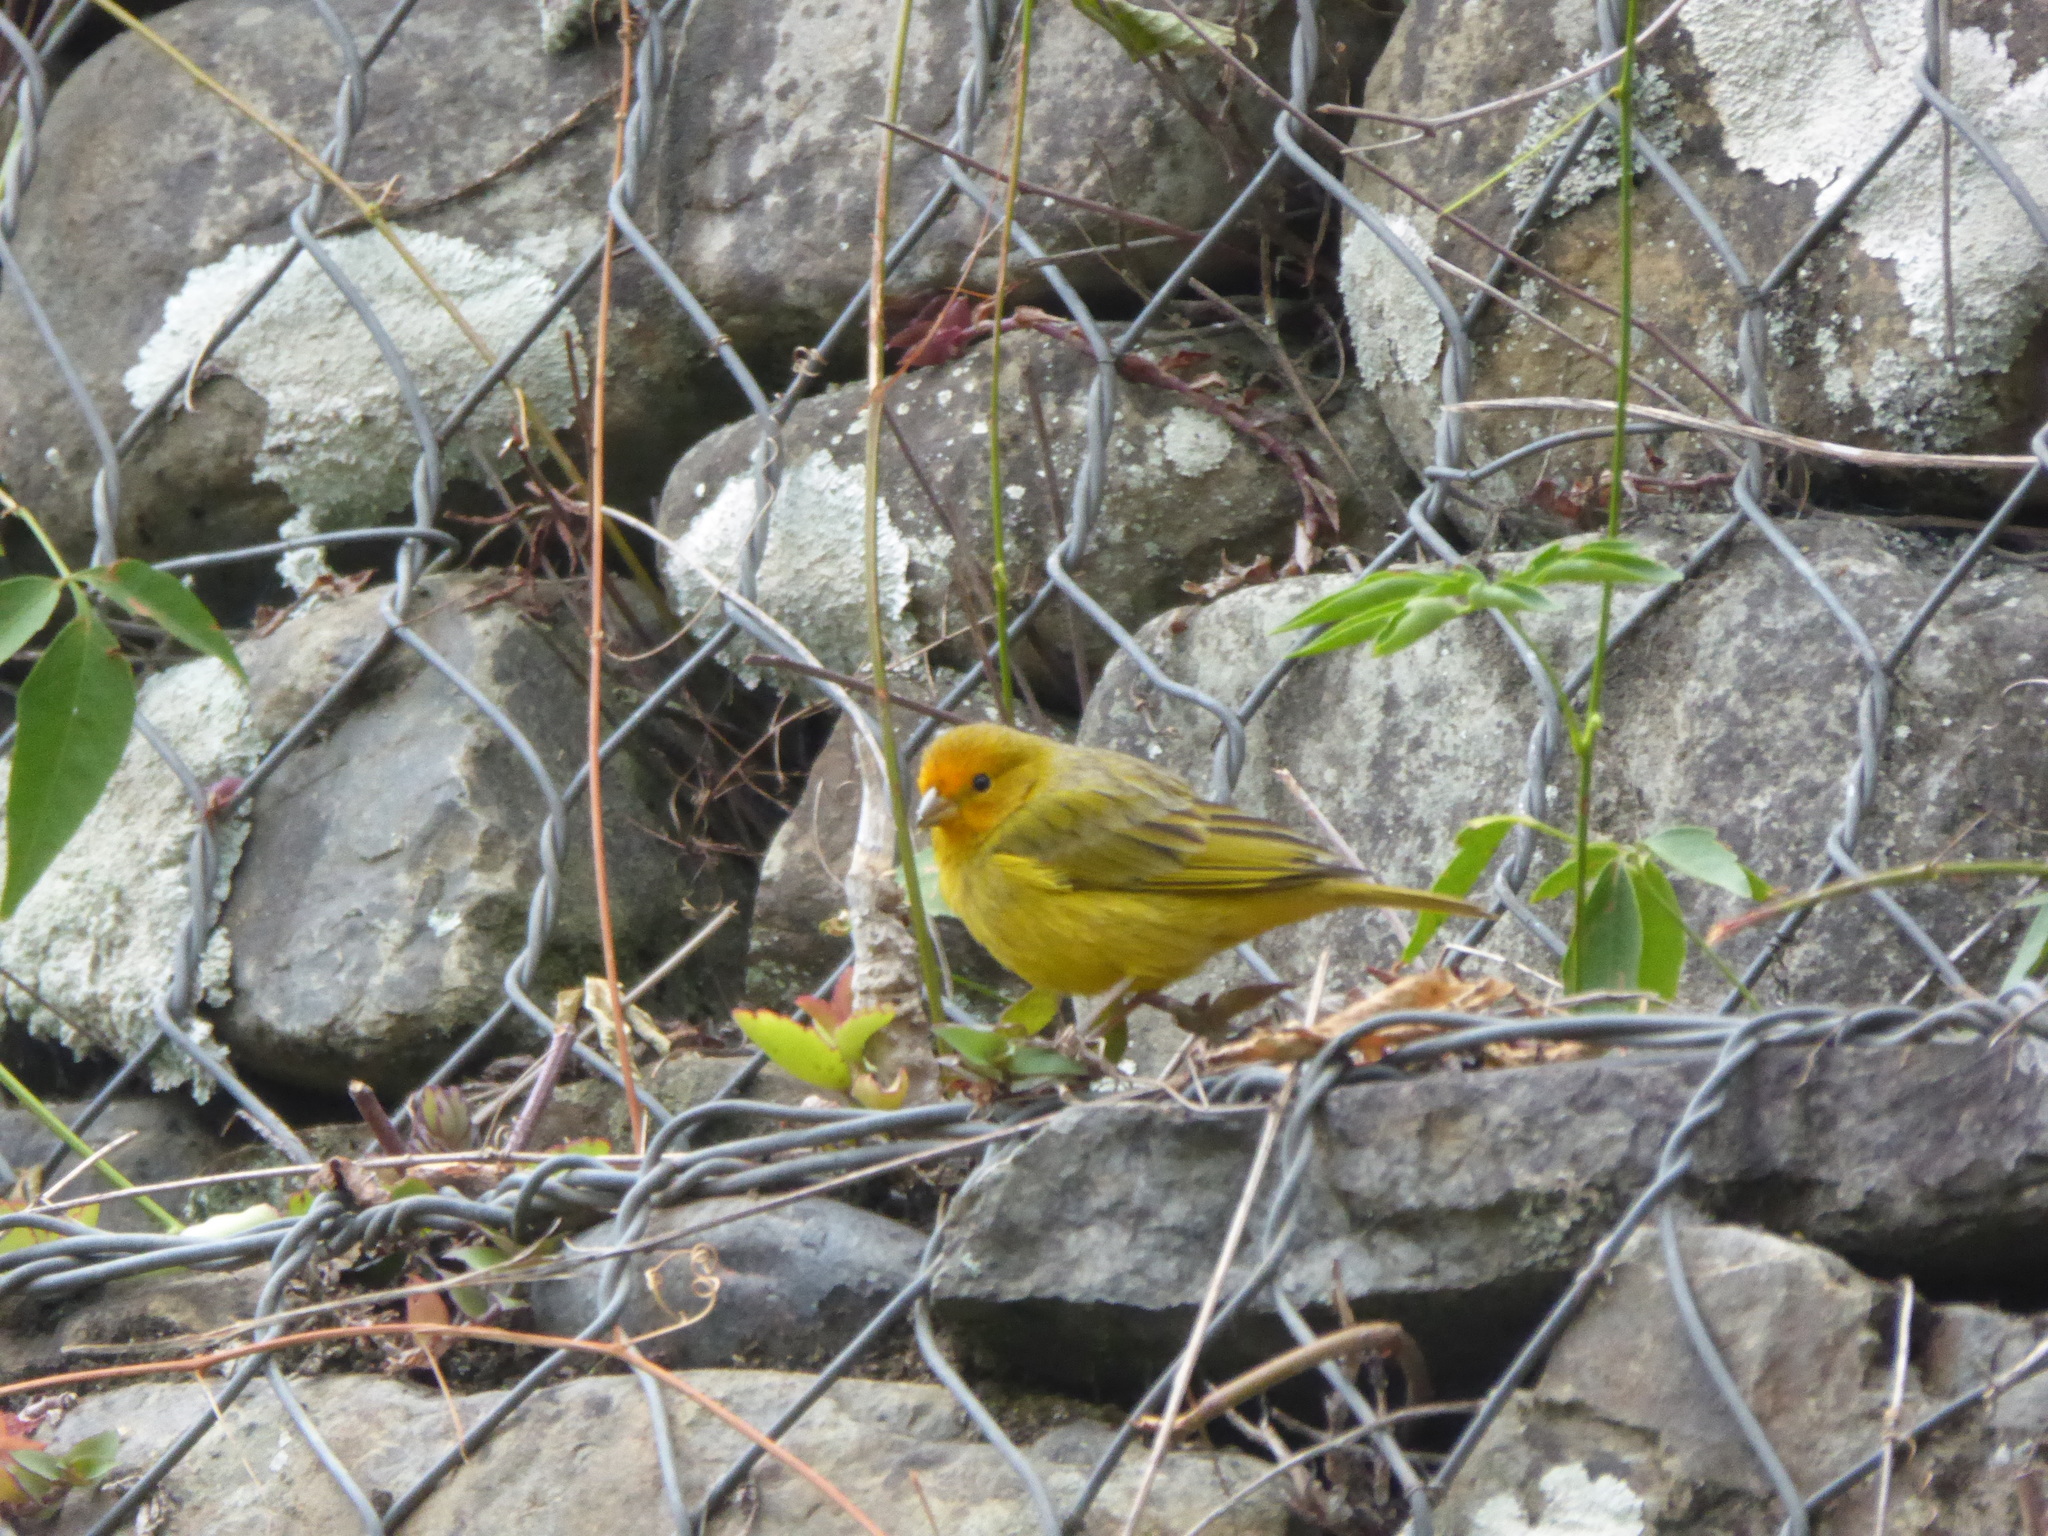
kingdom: Animalia
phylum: Chordata
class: Aves
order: Passeriformes
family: Thraupidae
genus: Sicalis
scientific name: Sicalis flaveola
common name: Saffron finch
